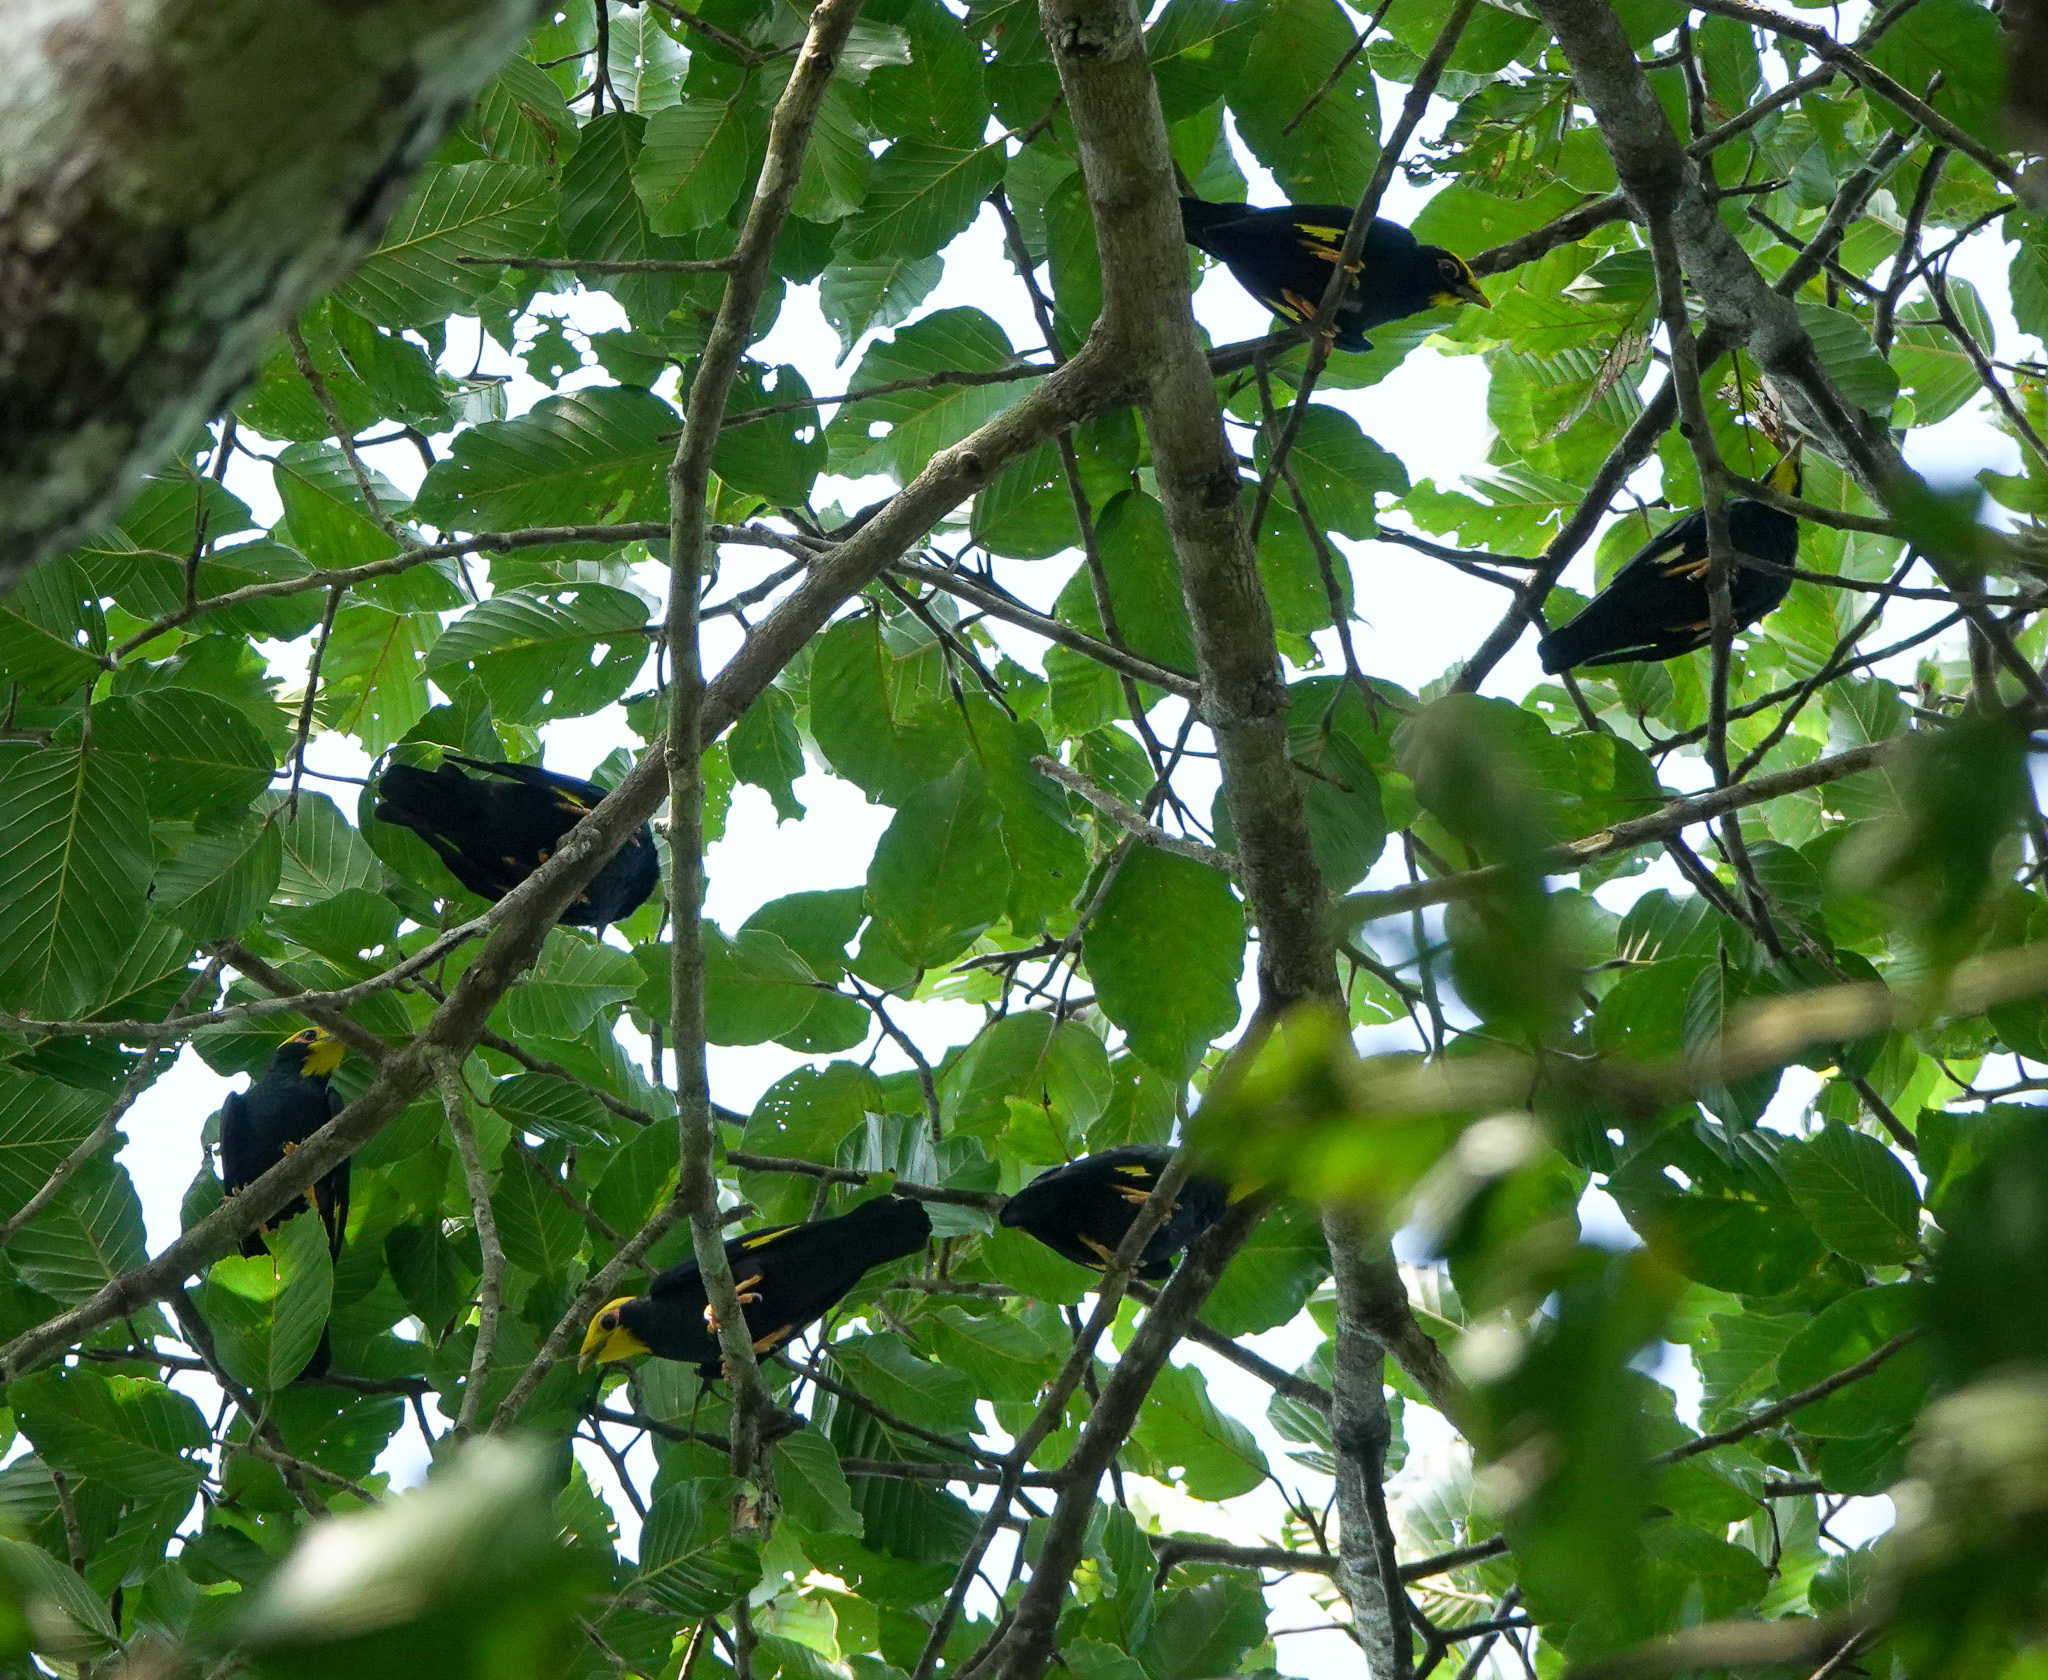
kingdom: Animalia
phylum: Chordata
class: Aves
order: Passeriformes
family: Sturnidae
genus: Ampeliceps
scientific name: Ampeliceps coronatus
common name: Golden-crested myna
